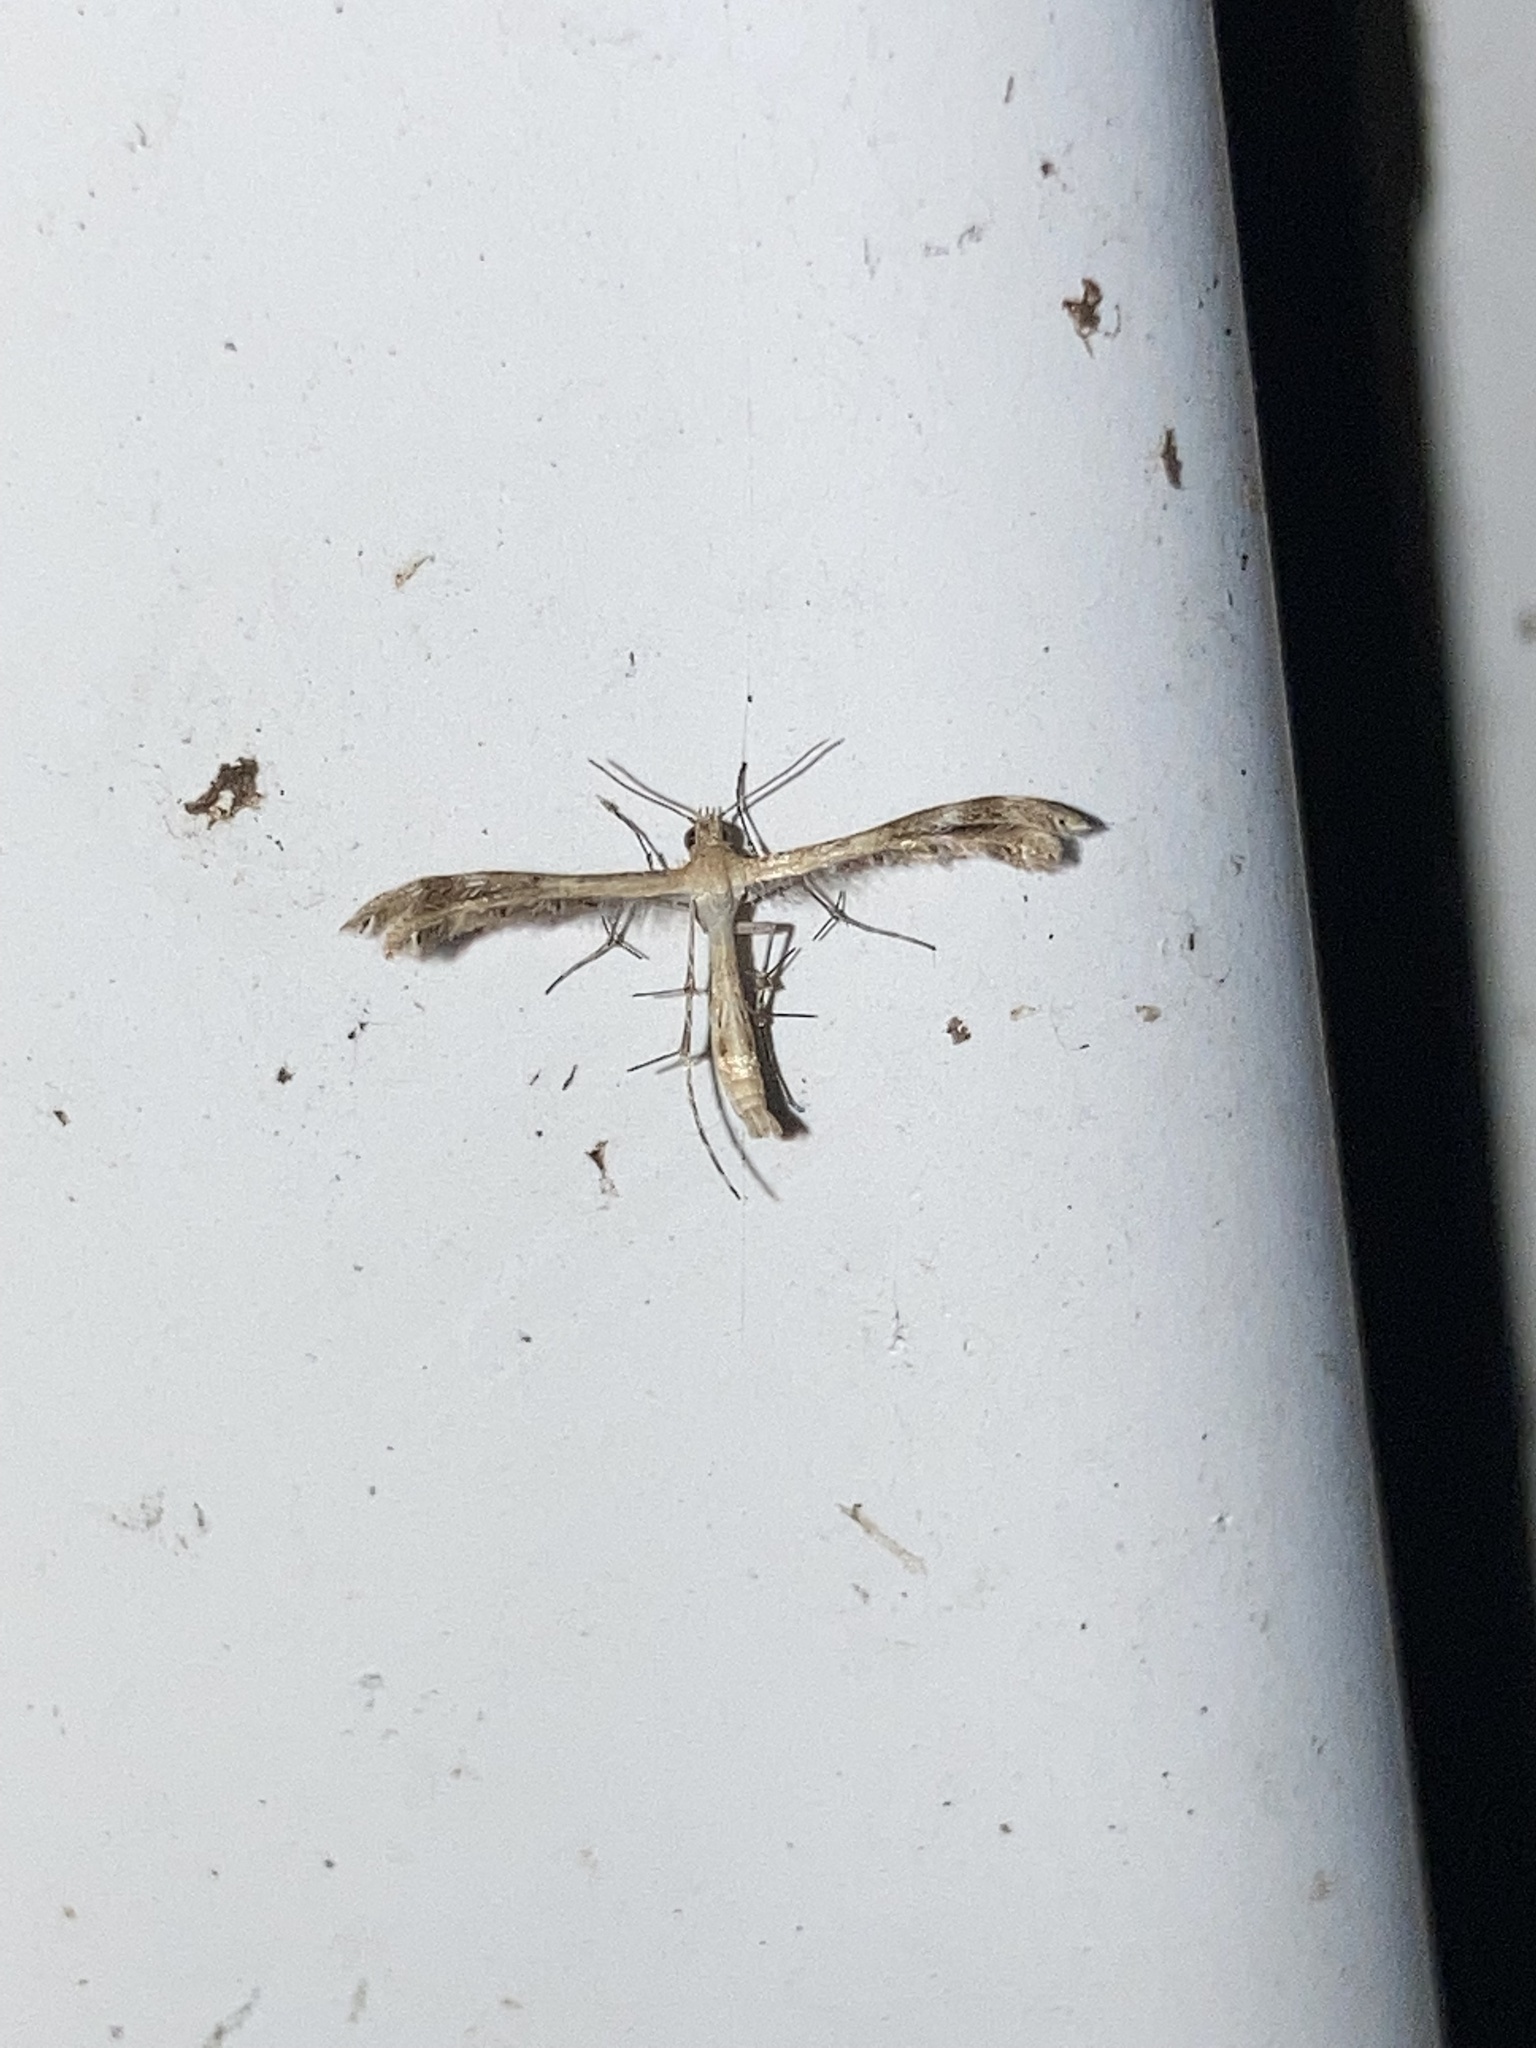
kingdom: Animalia
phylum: Arthropoda
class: Insecta
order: Lepidoptera
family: Pterophoridae
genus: Megalorhipida
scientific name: Megalorhipida leucodactylus
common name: Plume moth
